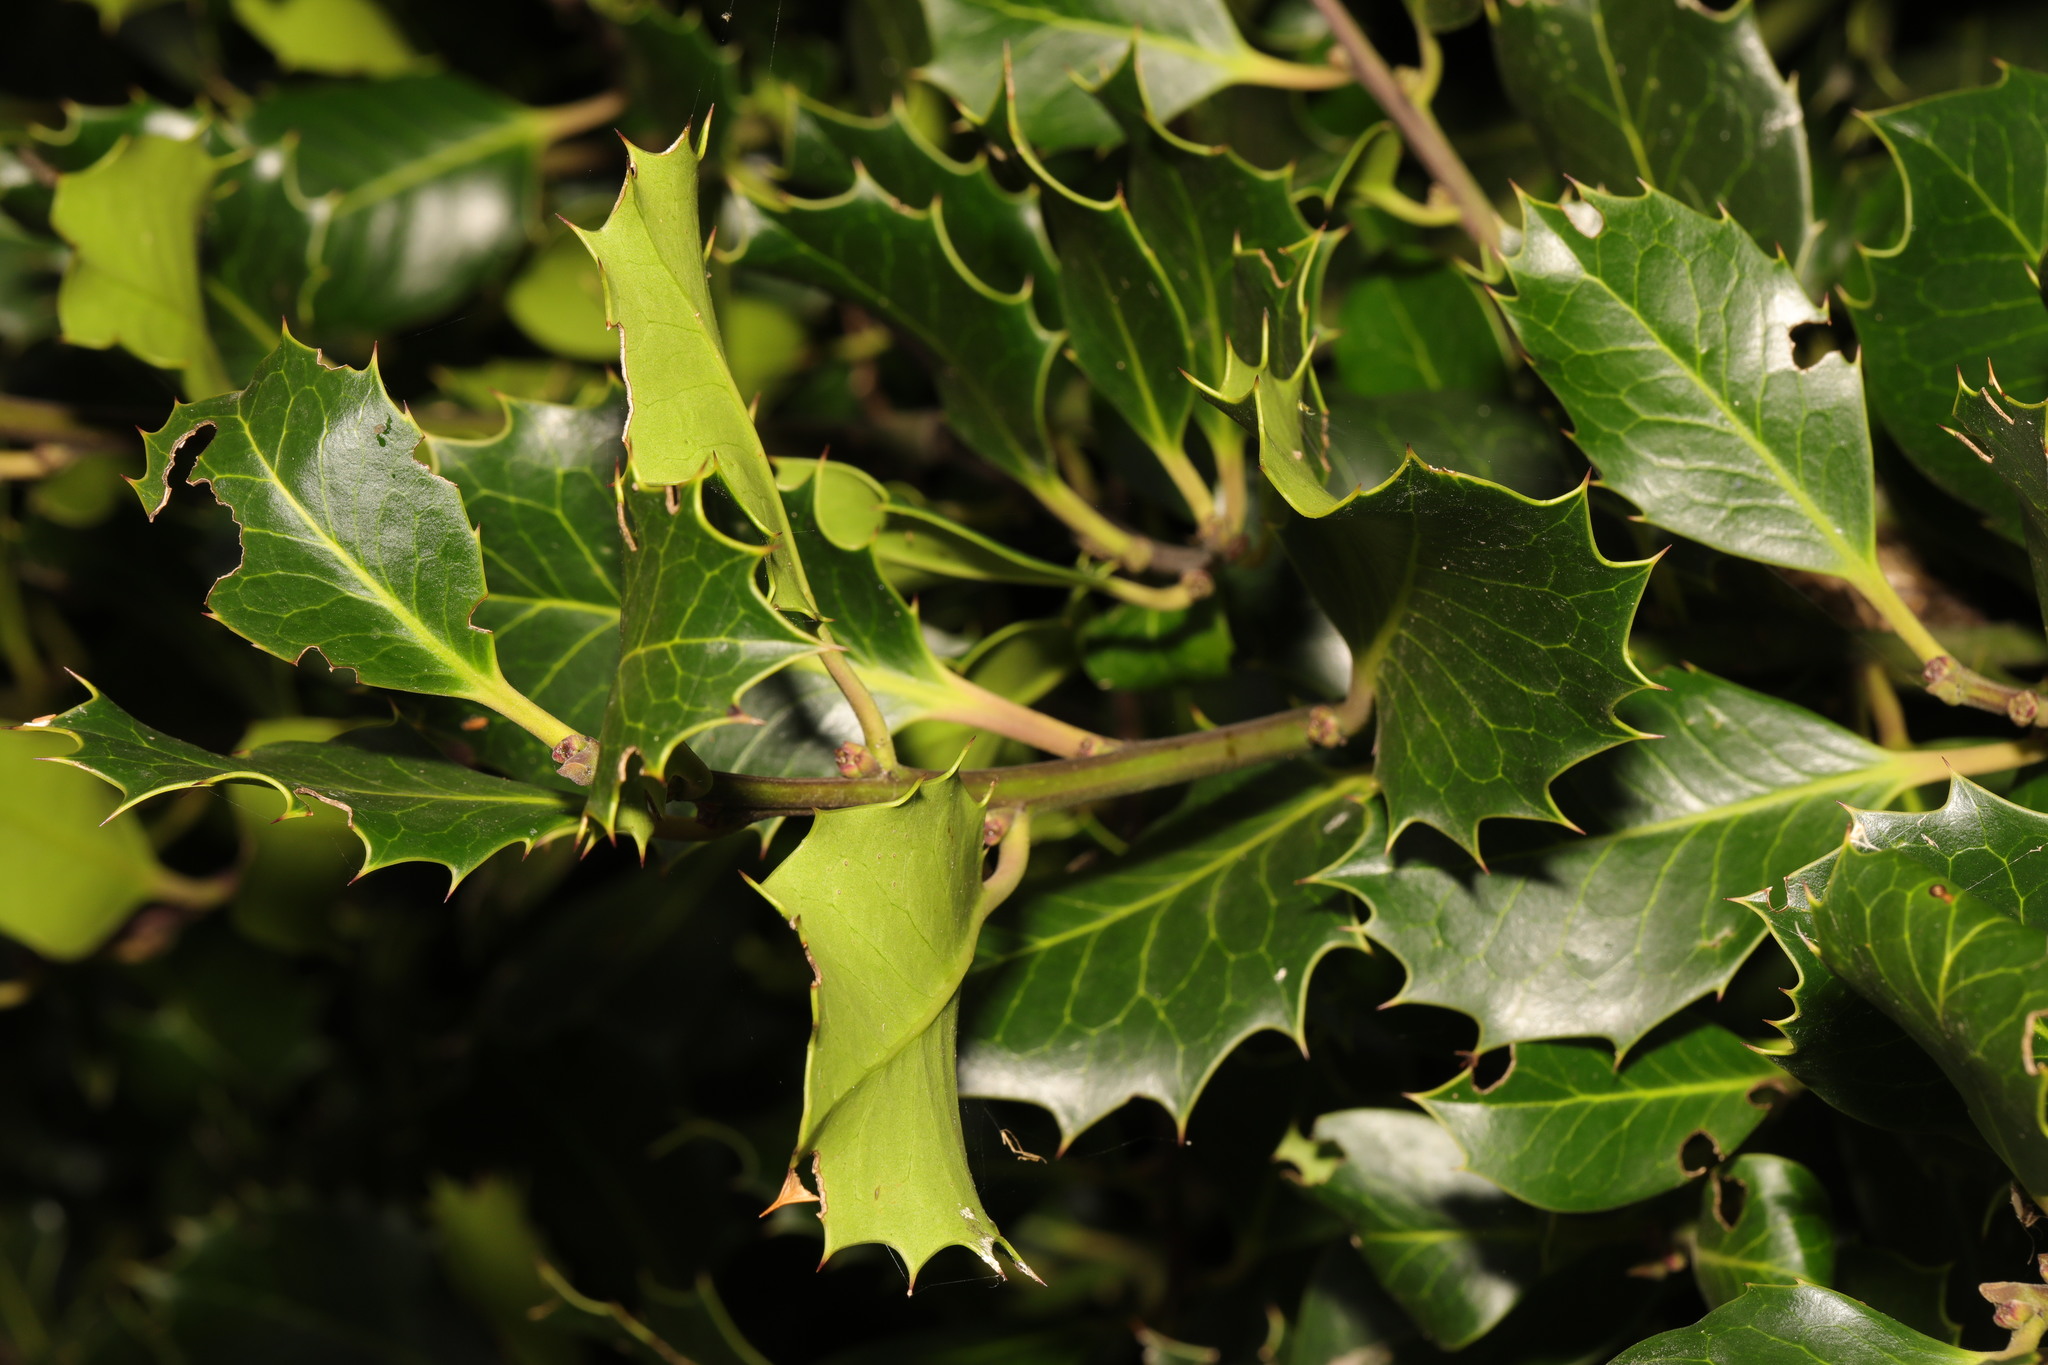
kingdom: Plantae
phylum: Tracheophyta
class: Magnoliopsida
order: Aquifoliales
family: Aquifoliaceae
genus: Ilex
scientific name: Ilex aquifolium
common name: English holly
